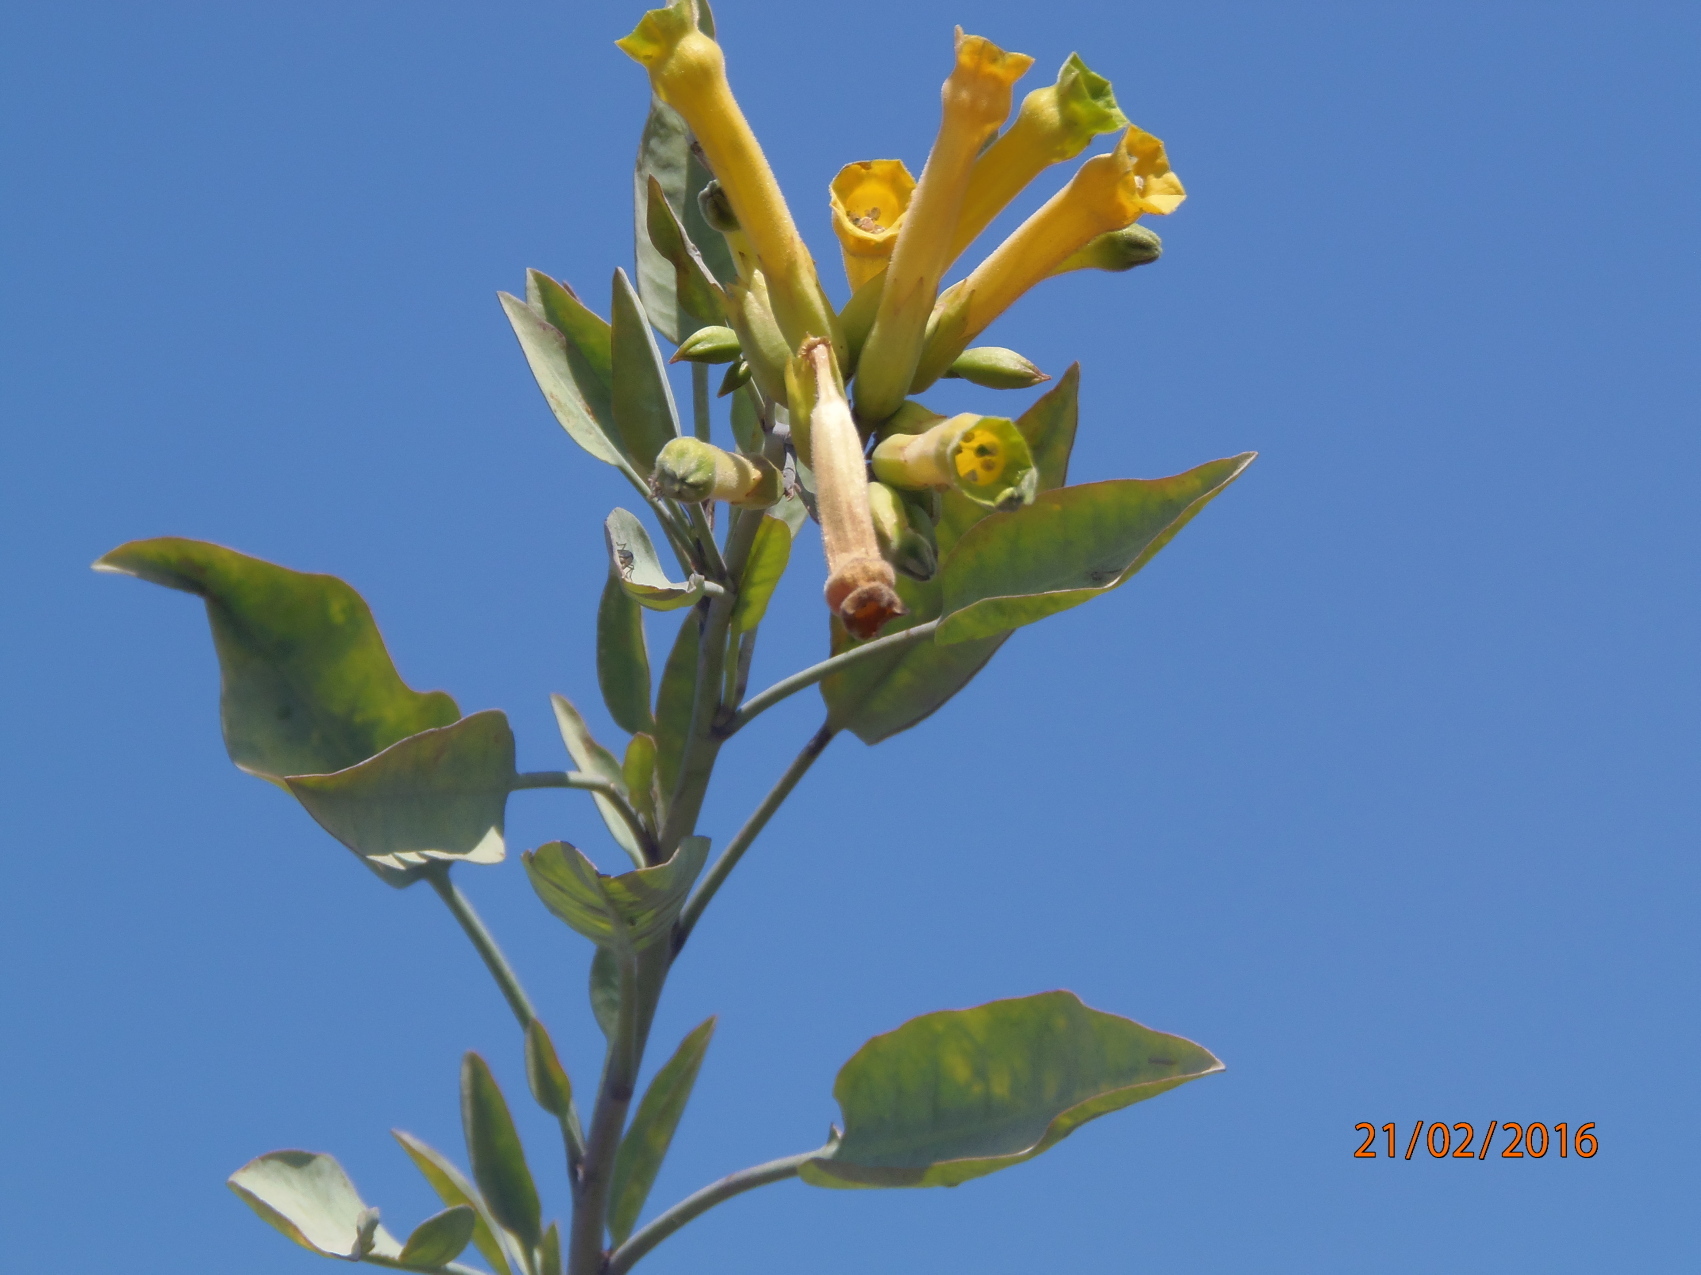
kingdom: Plantae
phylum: Tracheophyta
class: Magnoliopsida
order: Solanales
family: Solanaceae
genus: Nicotiana
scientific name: Nicotiana glauca
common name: Tree tobacco
